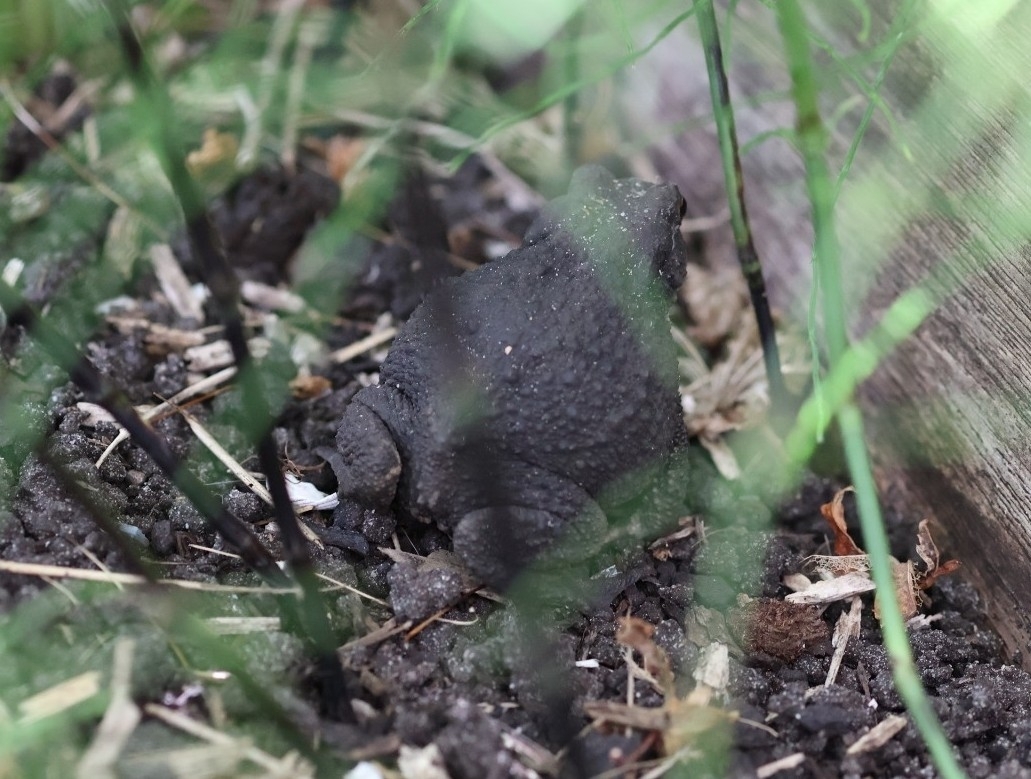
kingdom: Animalia
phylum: Chordata
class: Amphibia
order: Anura
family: Bufonidae
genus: Bufo
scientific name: Bufo bufo
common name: Common toad
